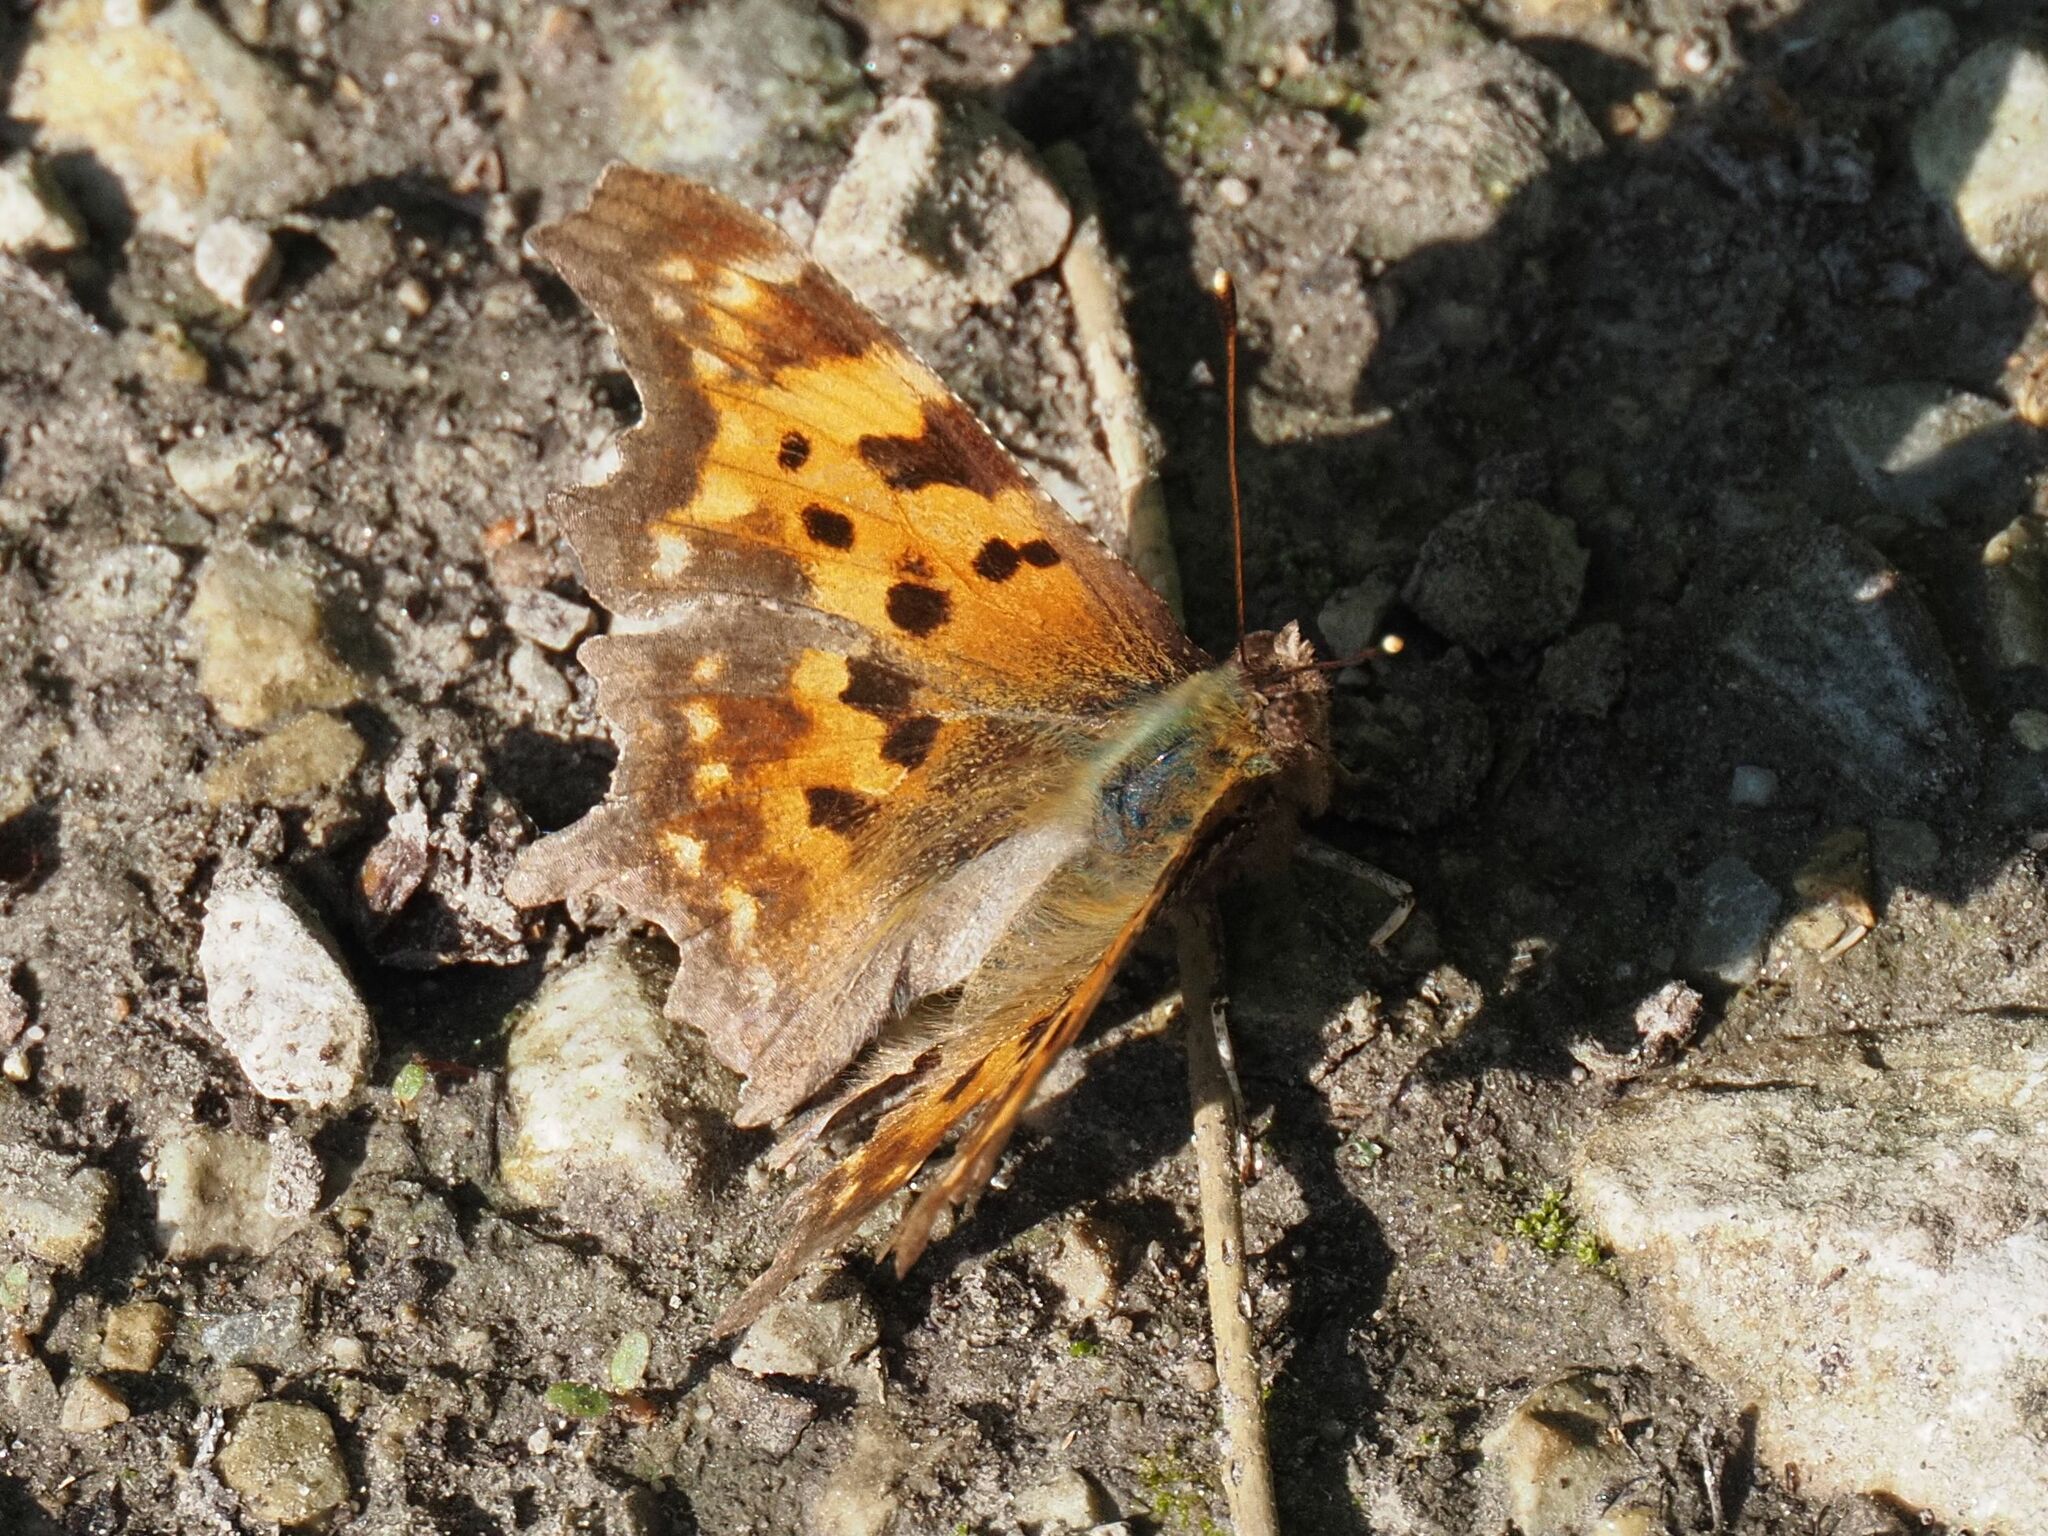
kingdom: Animalia
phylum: Arthropoda
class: Insecta
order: Lepidoptera
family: Nymphalidae
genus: Polygonia
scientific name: Polygonia c-album
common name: Comma
